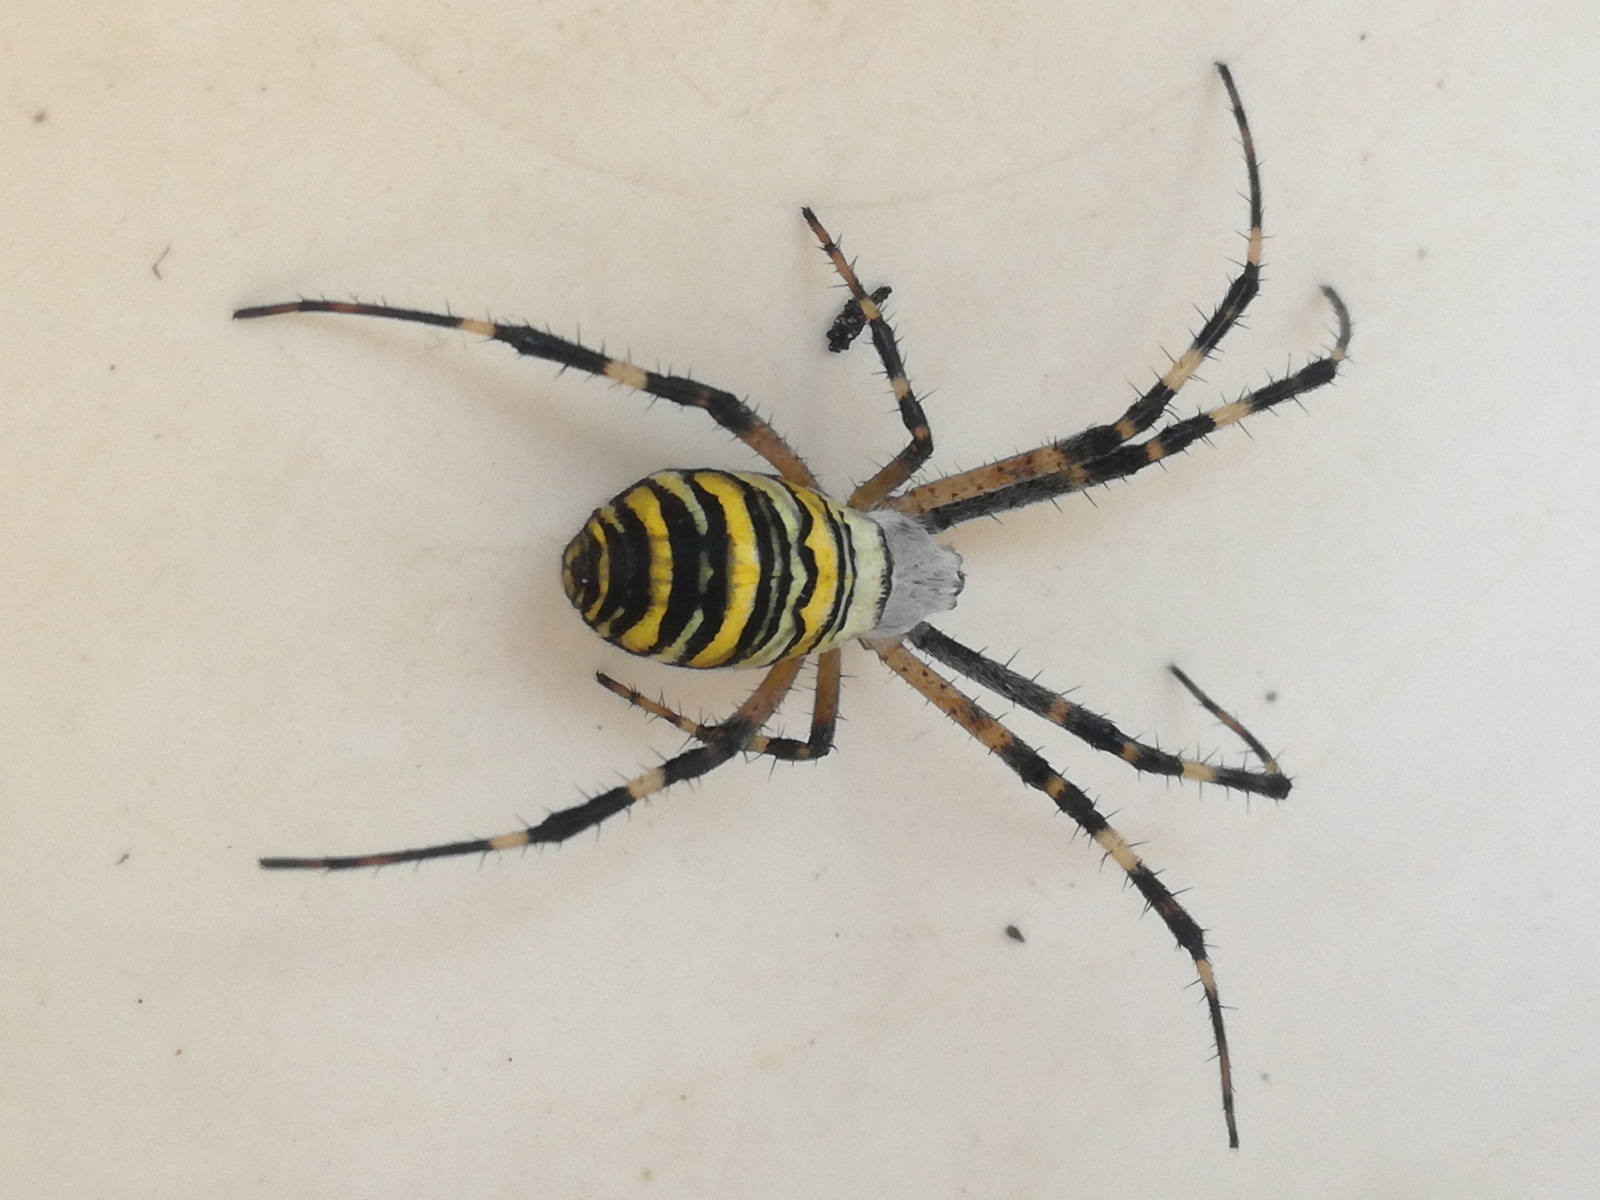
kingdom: Animalia
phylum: Arthropoda
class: Arachnida
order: Araneae
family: Araneidae
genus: Argiope
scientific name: Argiope bruennichi
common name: Wasp spider
